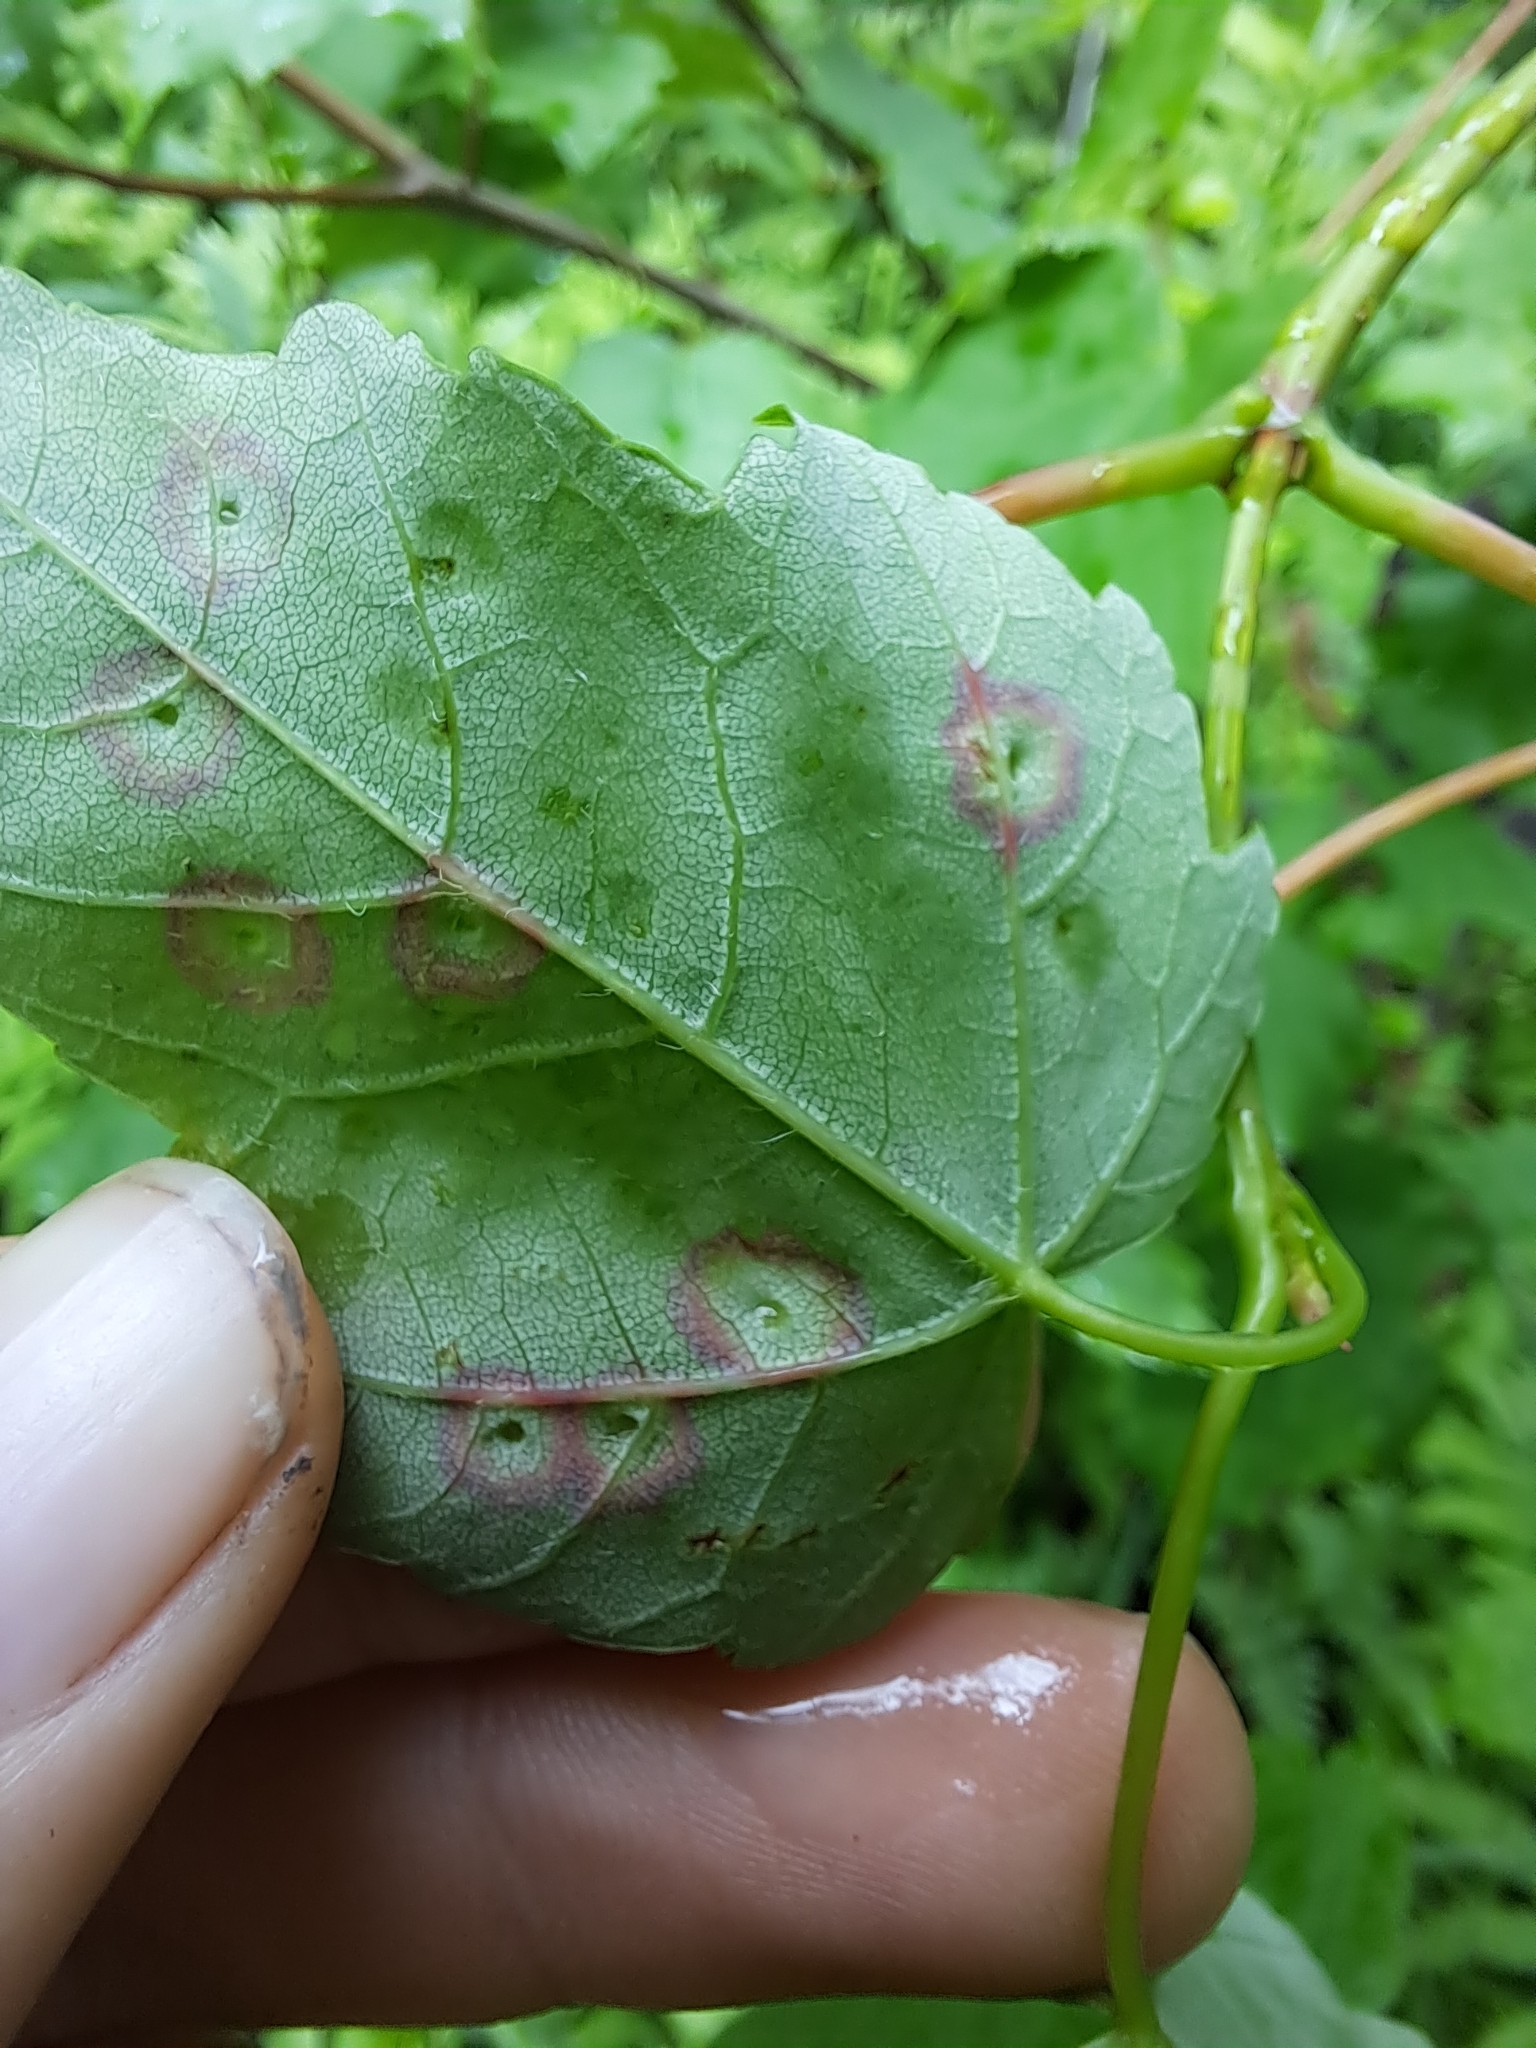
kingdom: Animalia
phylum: Arthropoda
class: Insecta
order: Diptera
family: Cecidomyiidae
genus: Acericecis
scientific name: Acericecis ocellaris
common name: Ocellate gall midge
